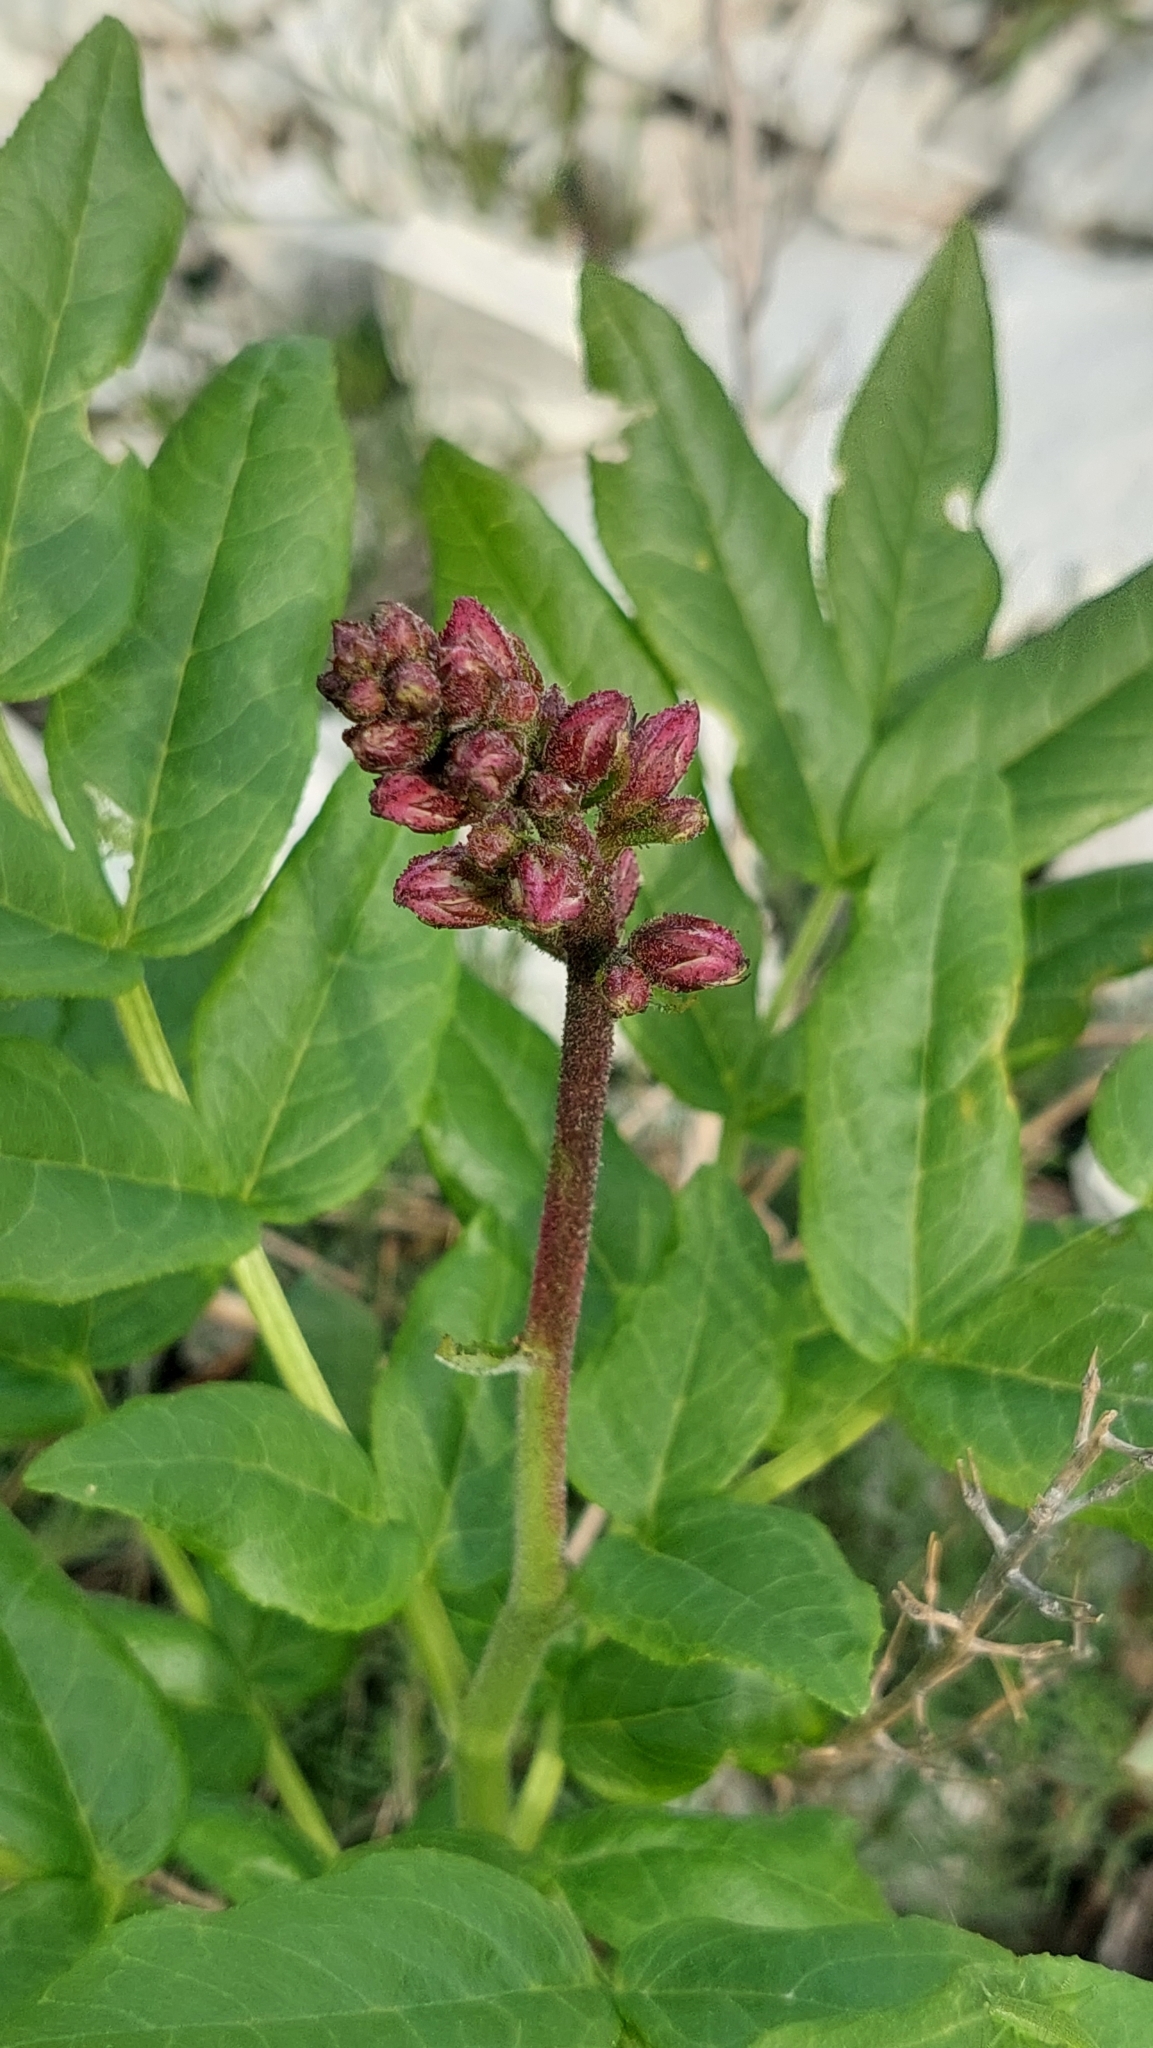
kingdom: Plantae
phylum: Tracheophyta
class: Magnoliopsida
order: Sapindales
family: Rutaceae
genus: Dictamnus
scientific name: Dictamnus albus
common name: Gasplant
